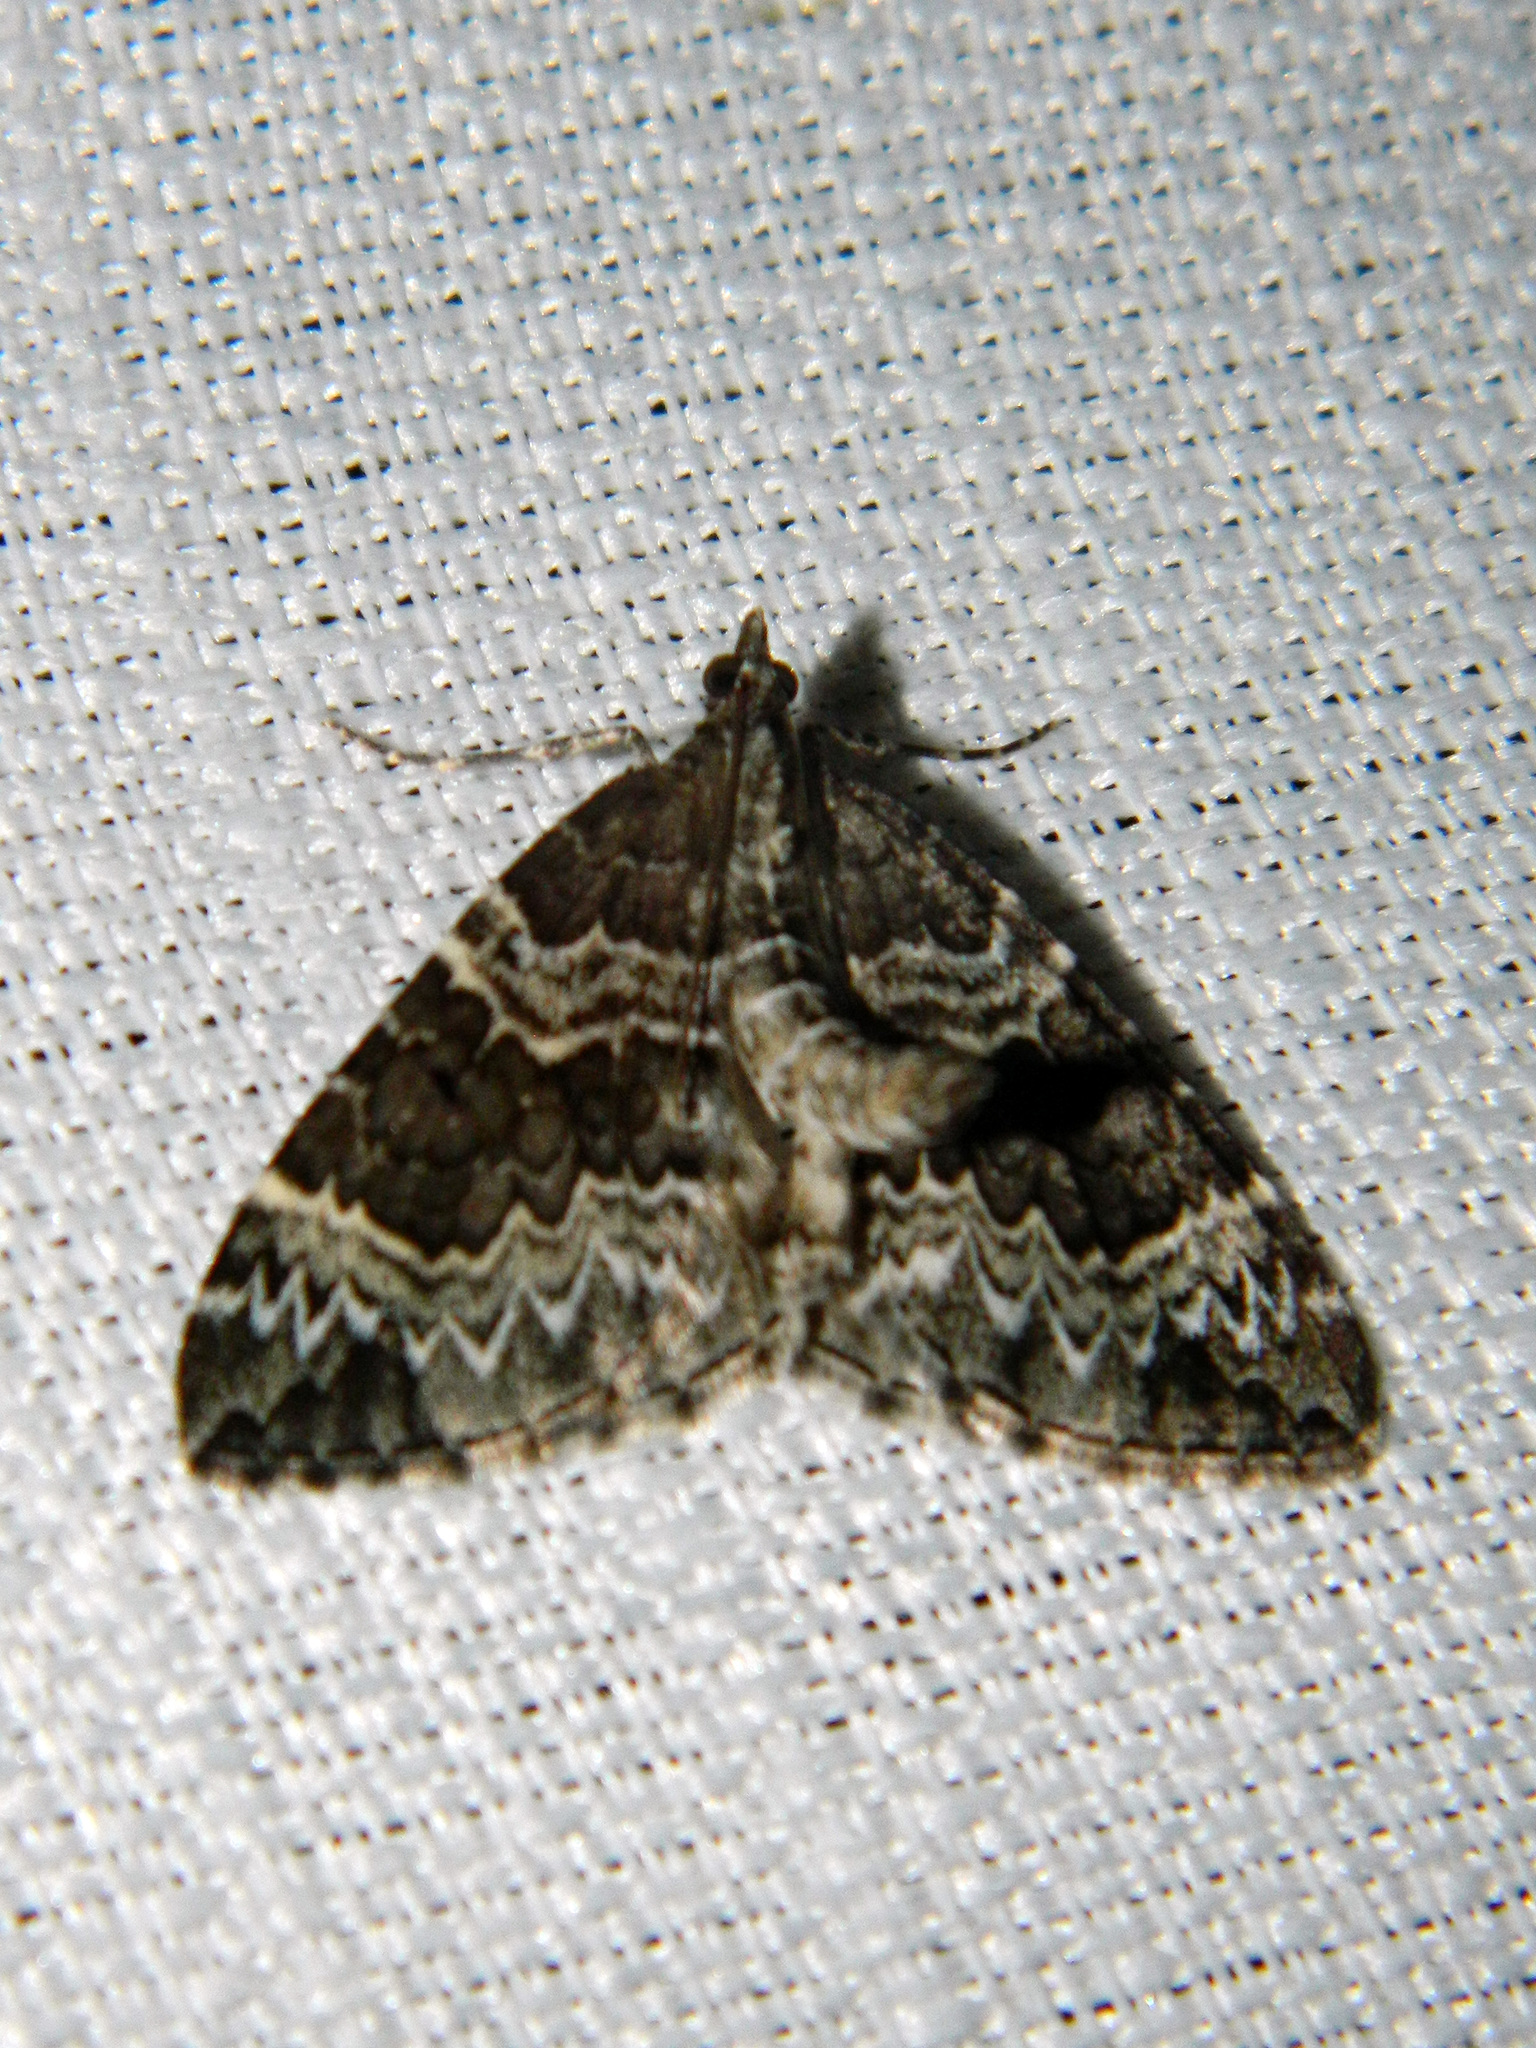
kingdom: Animalia
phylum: Arthropoda
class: Insecta
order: Lepidoptera
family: Geometridae
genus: Eulithis
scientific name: Eulithis explanata
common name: White eulithis
